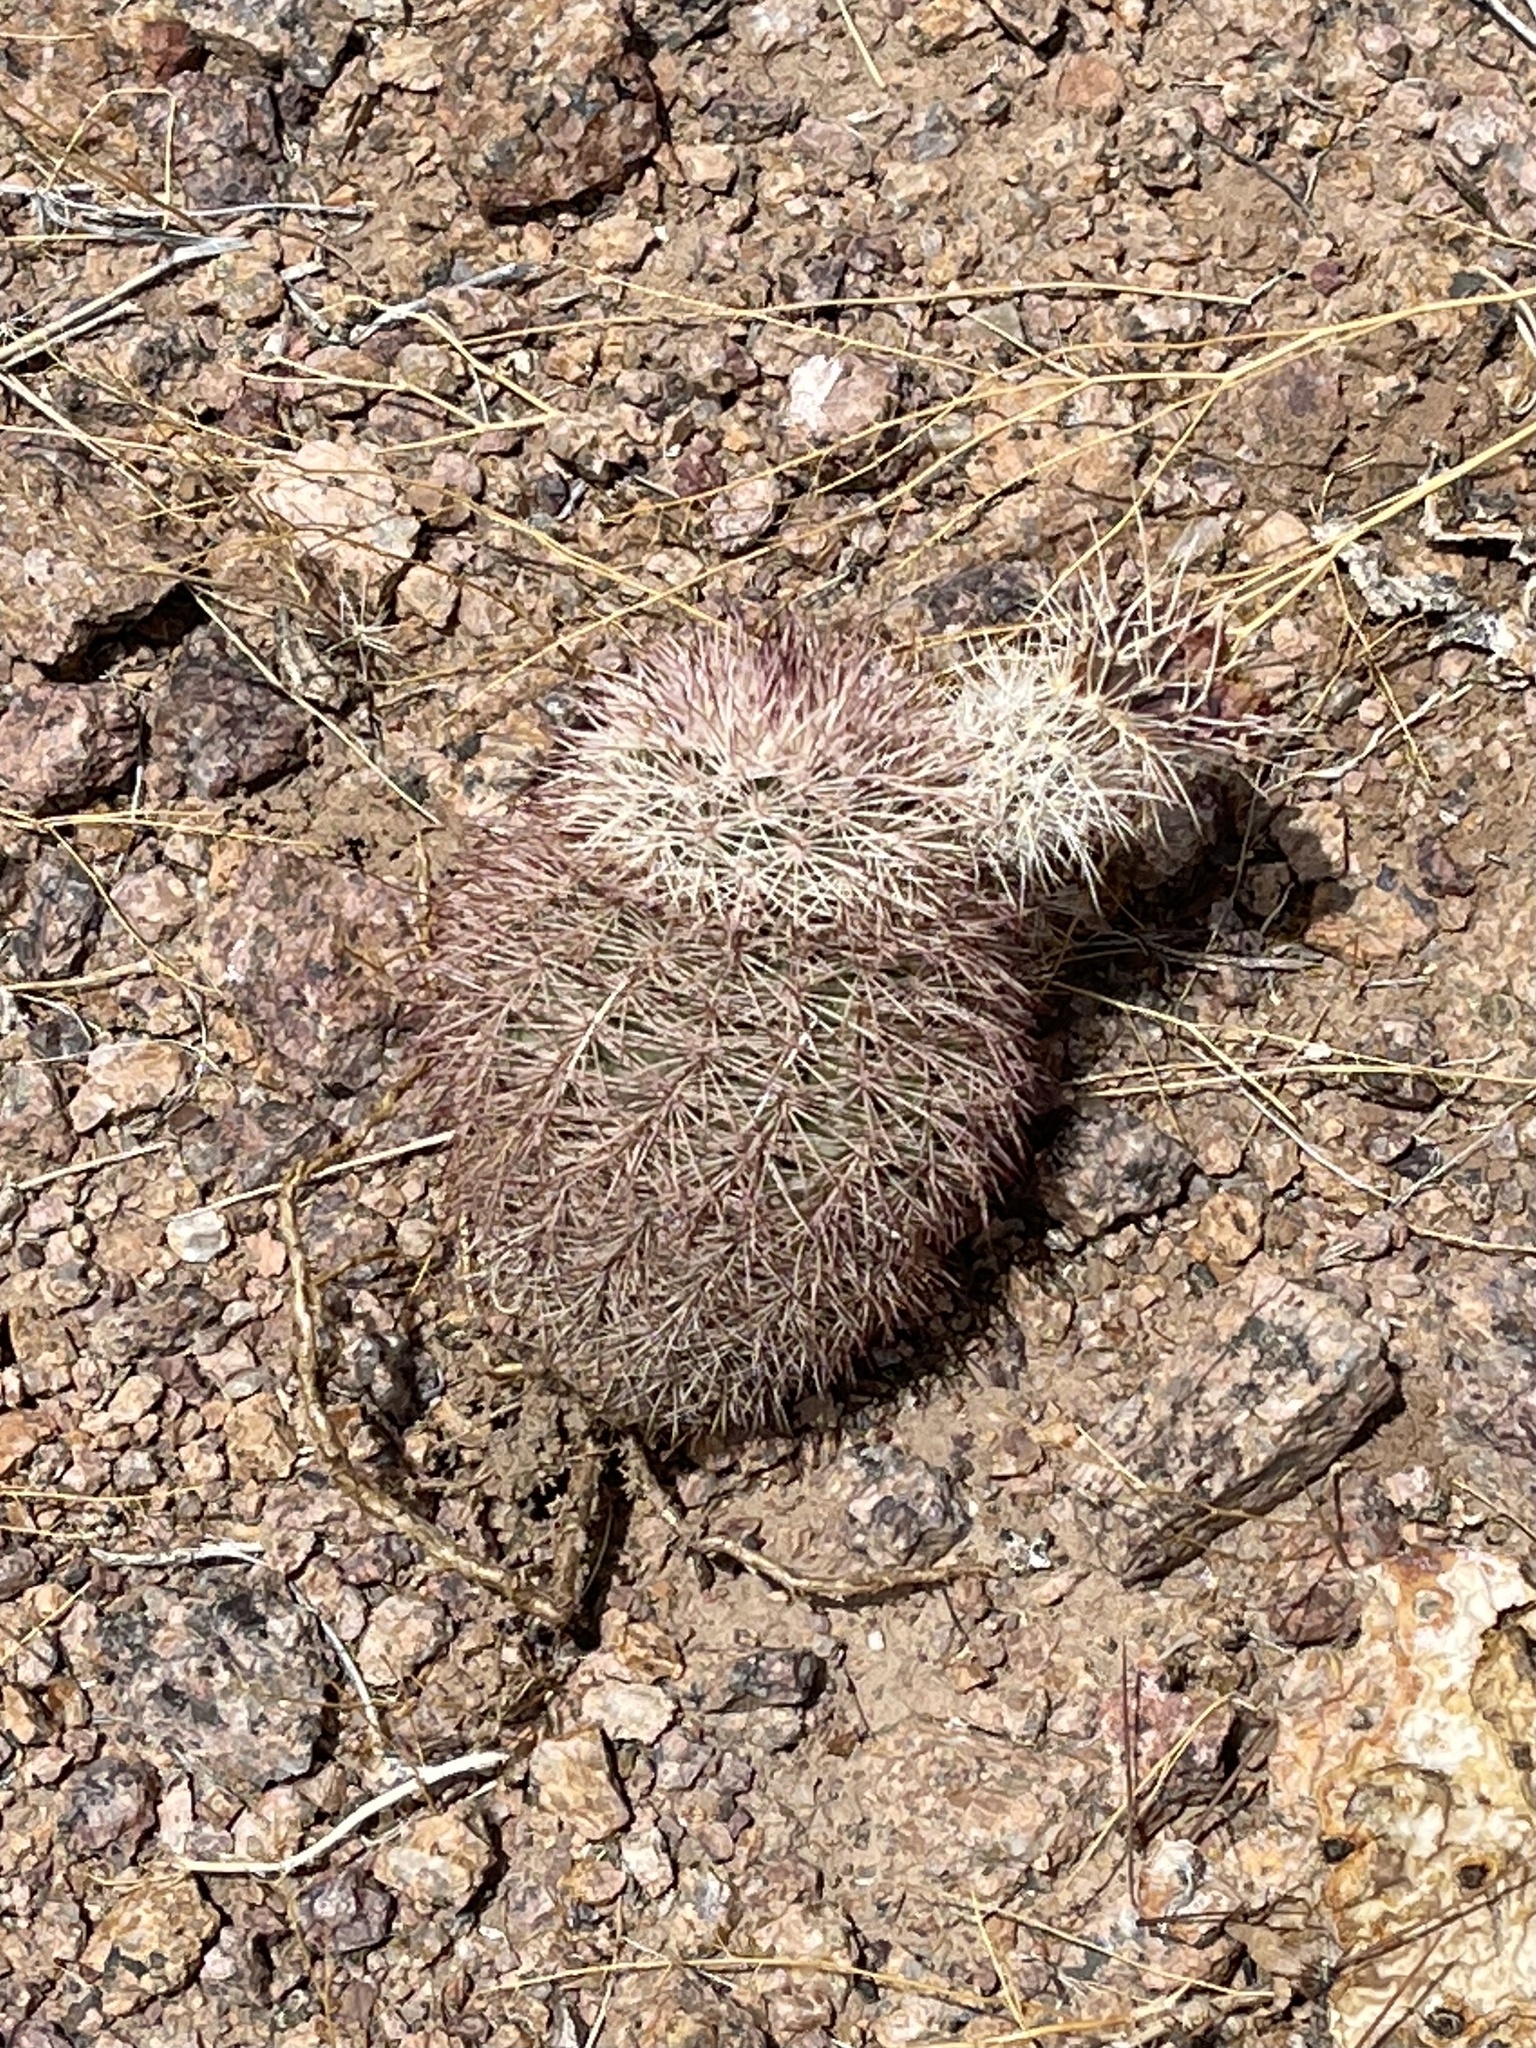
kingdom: Plantae
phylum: Tracheophyta
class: Magnoliopsida
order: Caryophyllales
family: Cactaceae
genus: Echinocereus
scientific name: Echinocereus dasyacanthus
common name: Spiny hedgehog cactus
